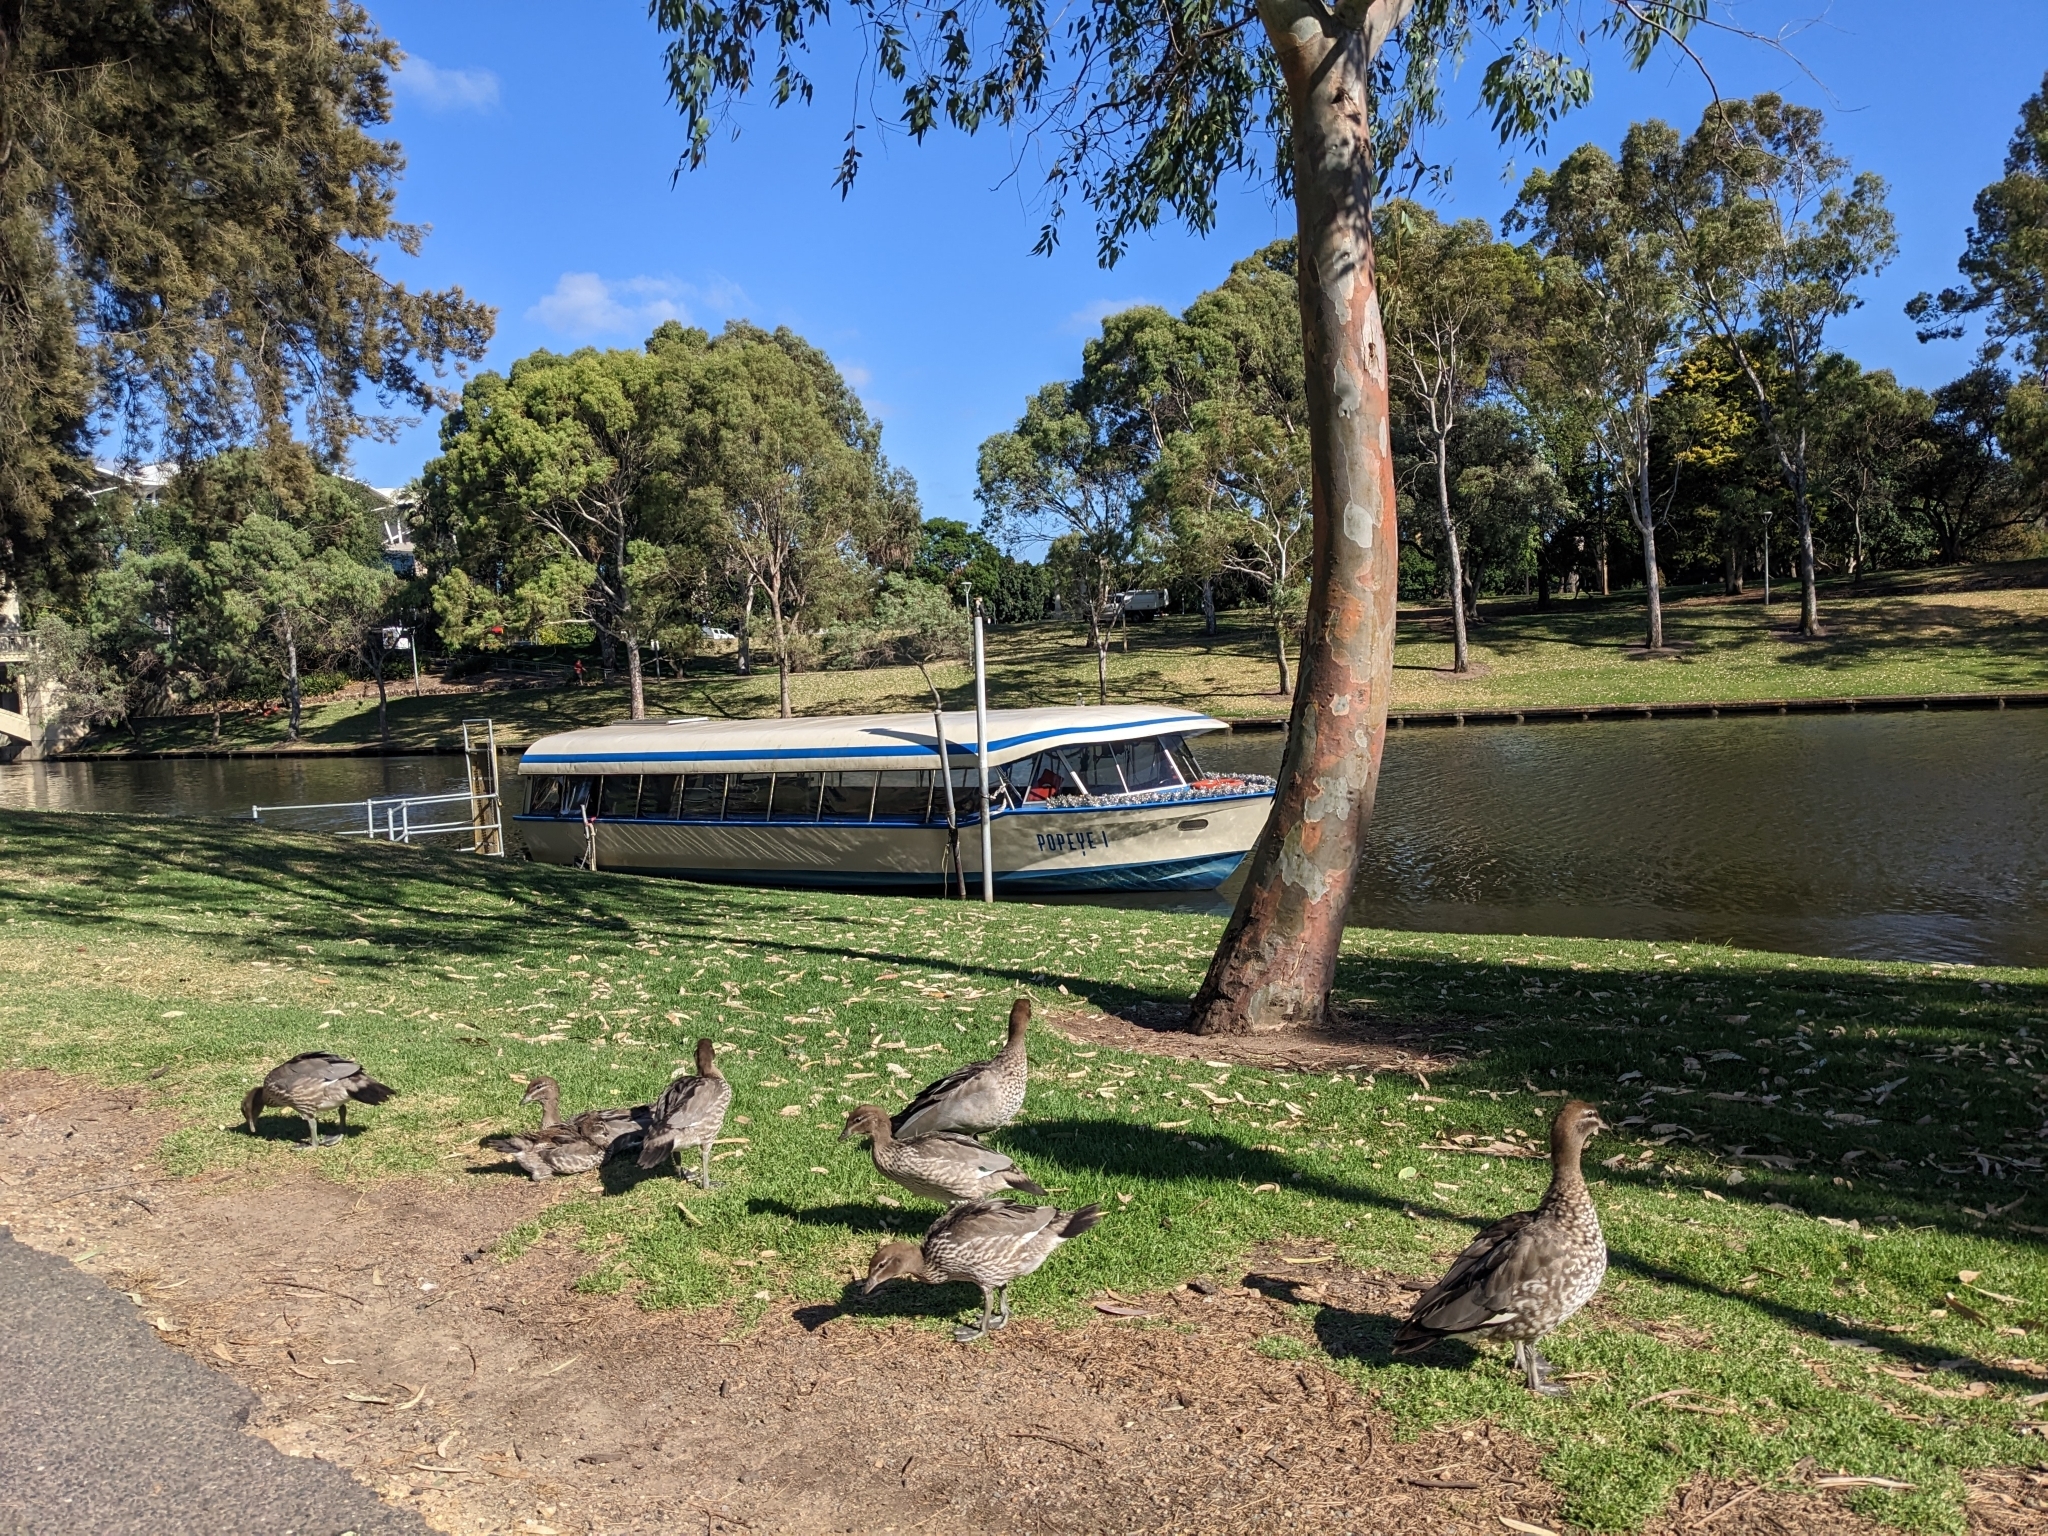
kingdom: Animalia
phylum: Chordata
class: Aves
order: Anseriformes
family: Anatidae
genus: Chenonetta
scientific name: Chenonetta jubata
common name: Maned duck
